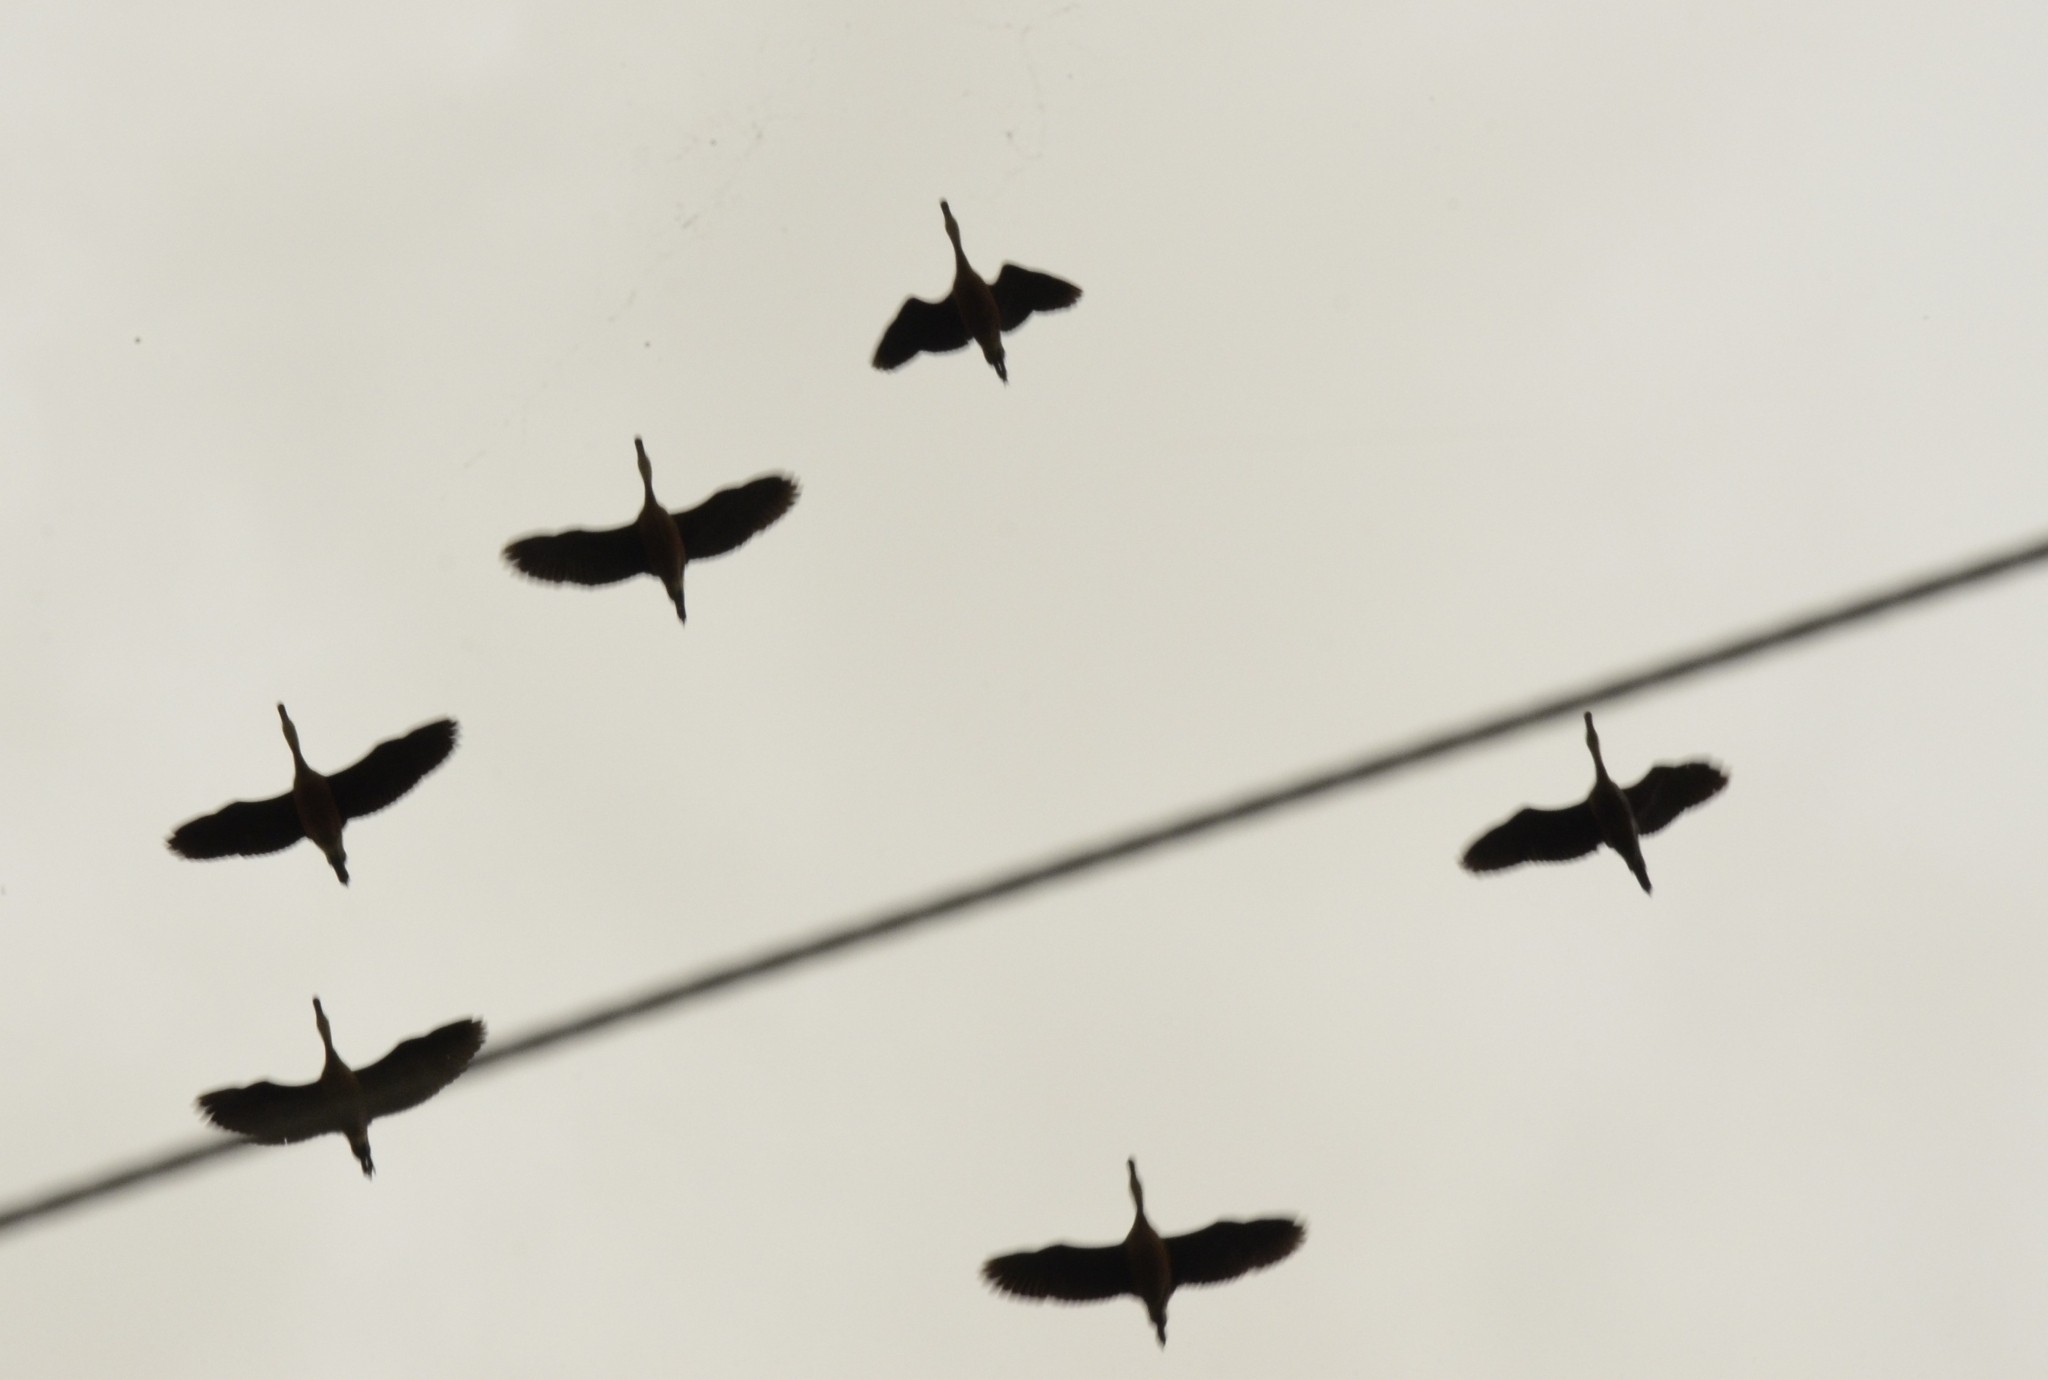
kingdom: Animalia
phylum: Chordata
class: Aves
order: Anseriformes
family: Anatidae
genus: Dendrocygna
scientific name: Dendrocygna javanica
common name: Lesser whistling-duck
